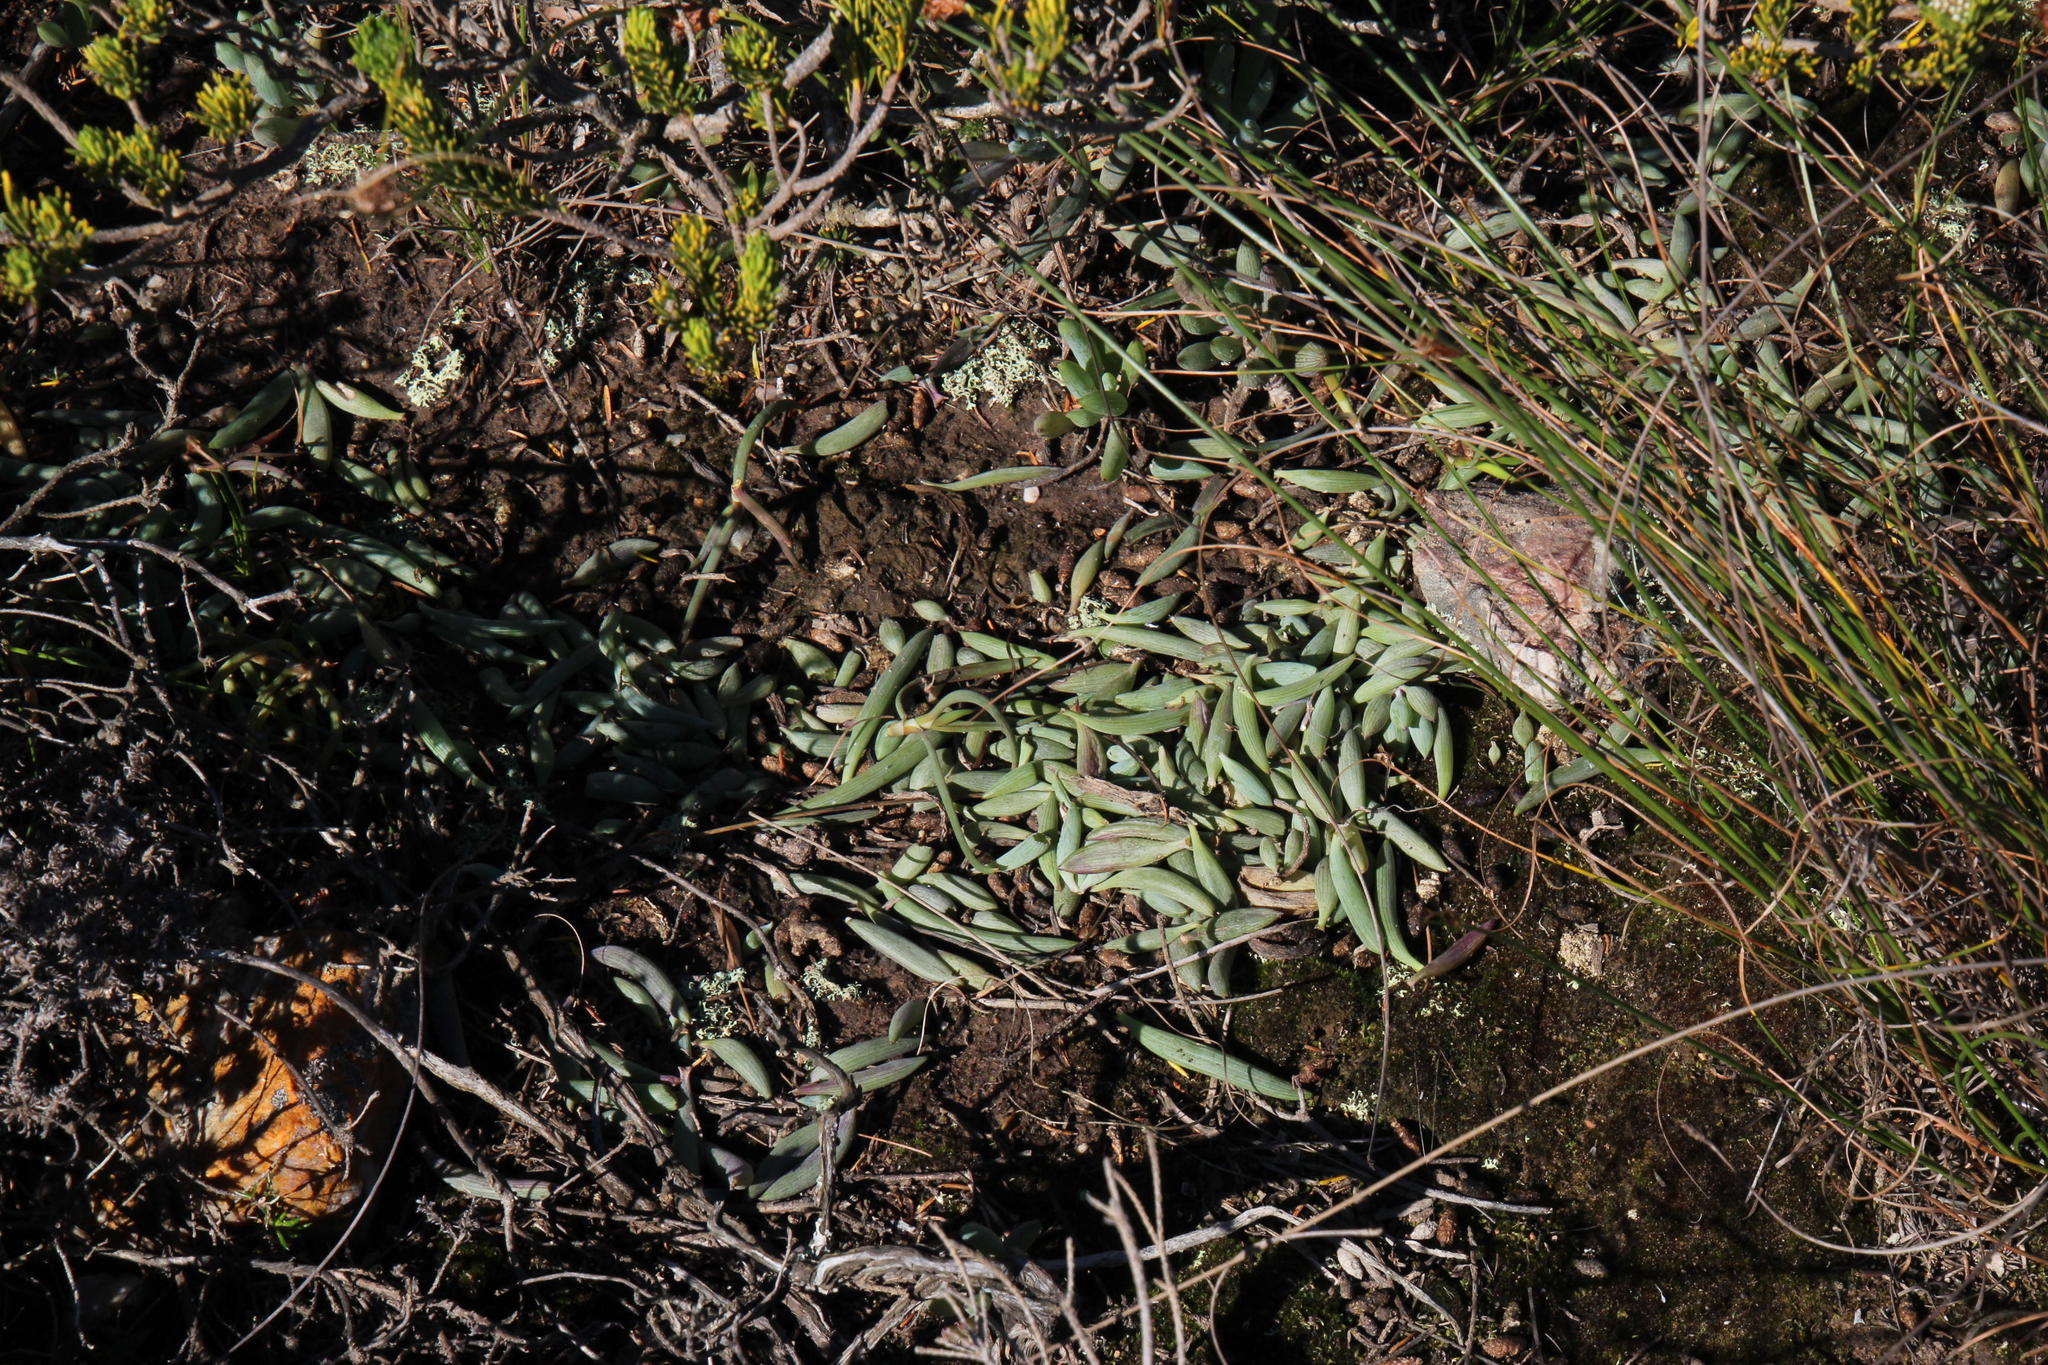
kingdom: Plantae
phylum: Tracheophyta
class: Magnoliopsida
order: Asterales
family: Asteraceae
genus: Curio
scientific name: Curio crassulifolius
